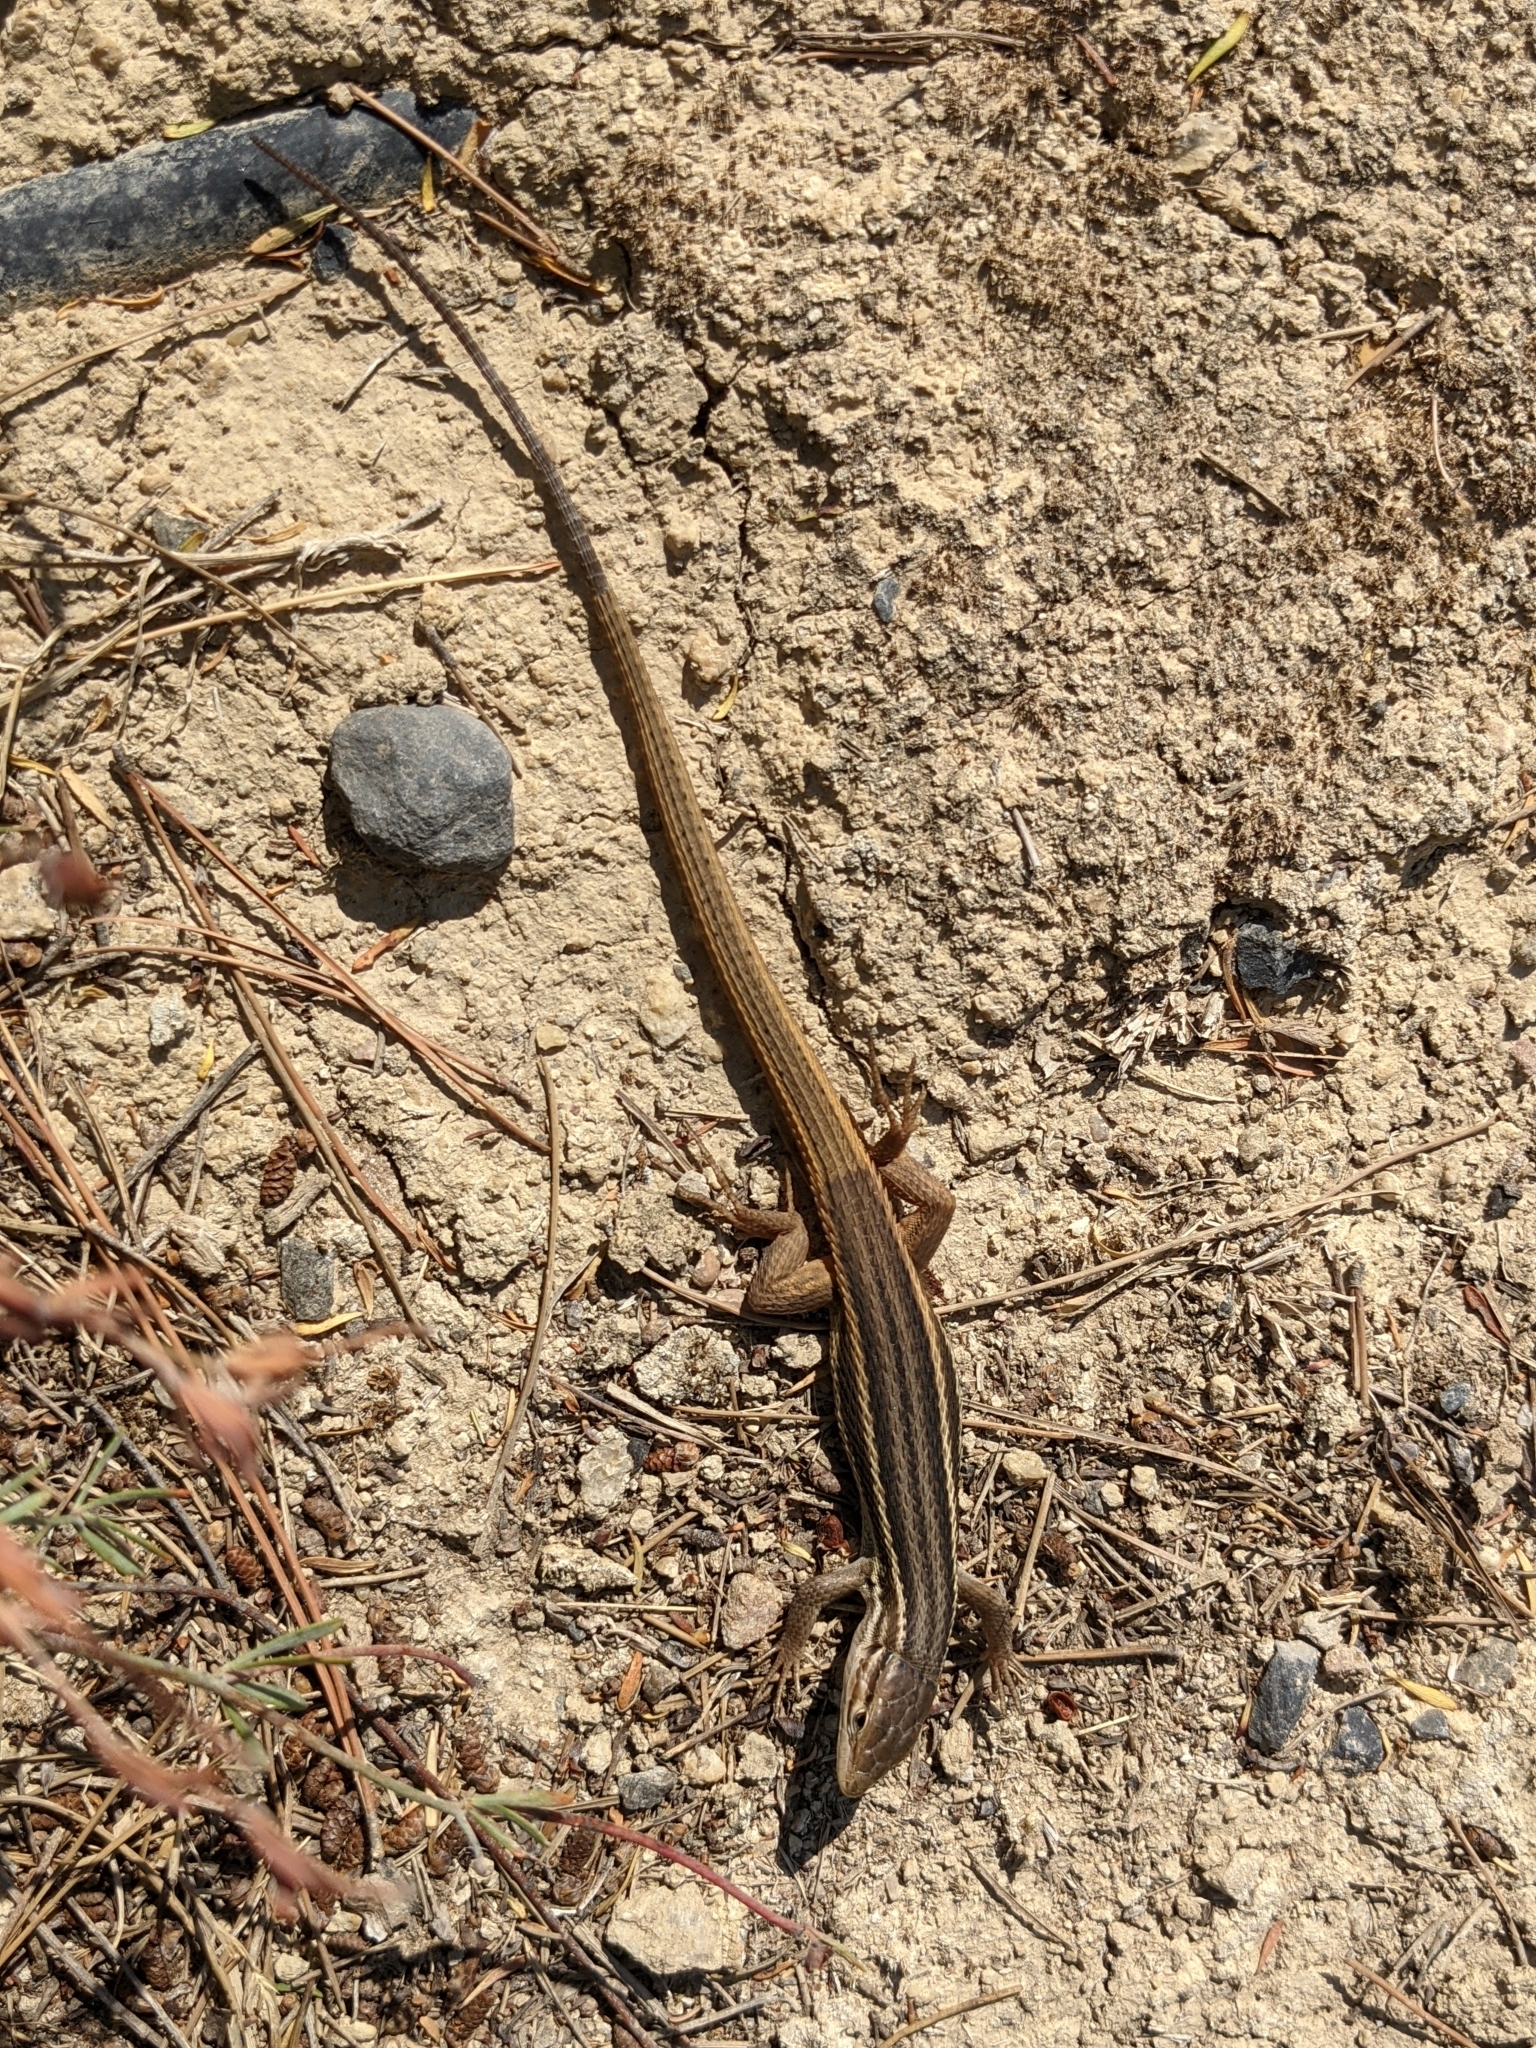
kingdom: Animalia
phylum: Chordata
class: Squamata
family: Lacertidae
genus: Psammodromus
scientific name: Psammodromus algirus
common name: Algerian psammodromus
